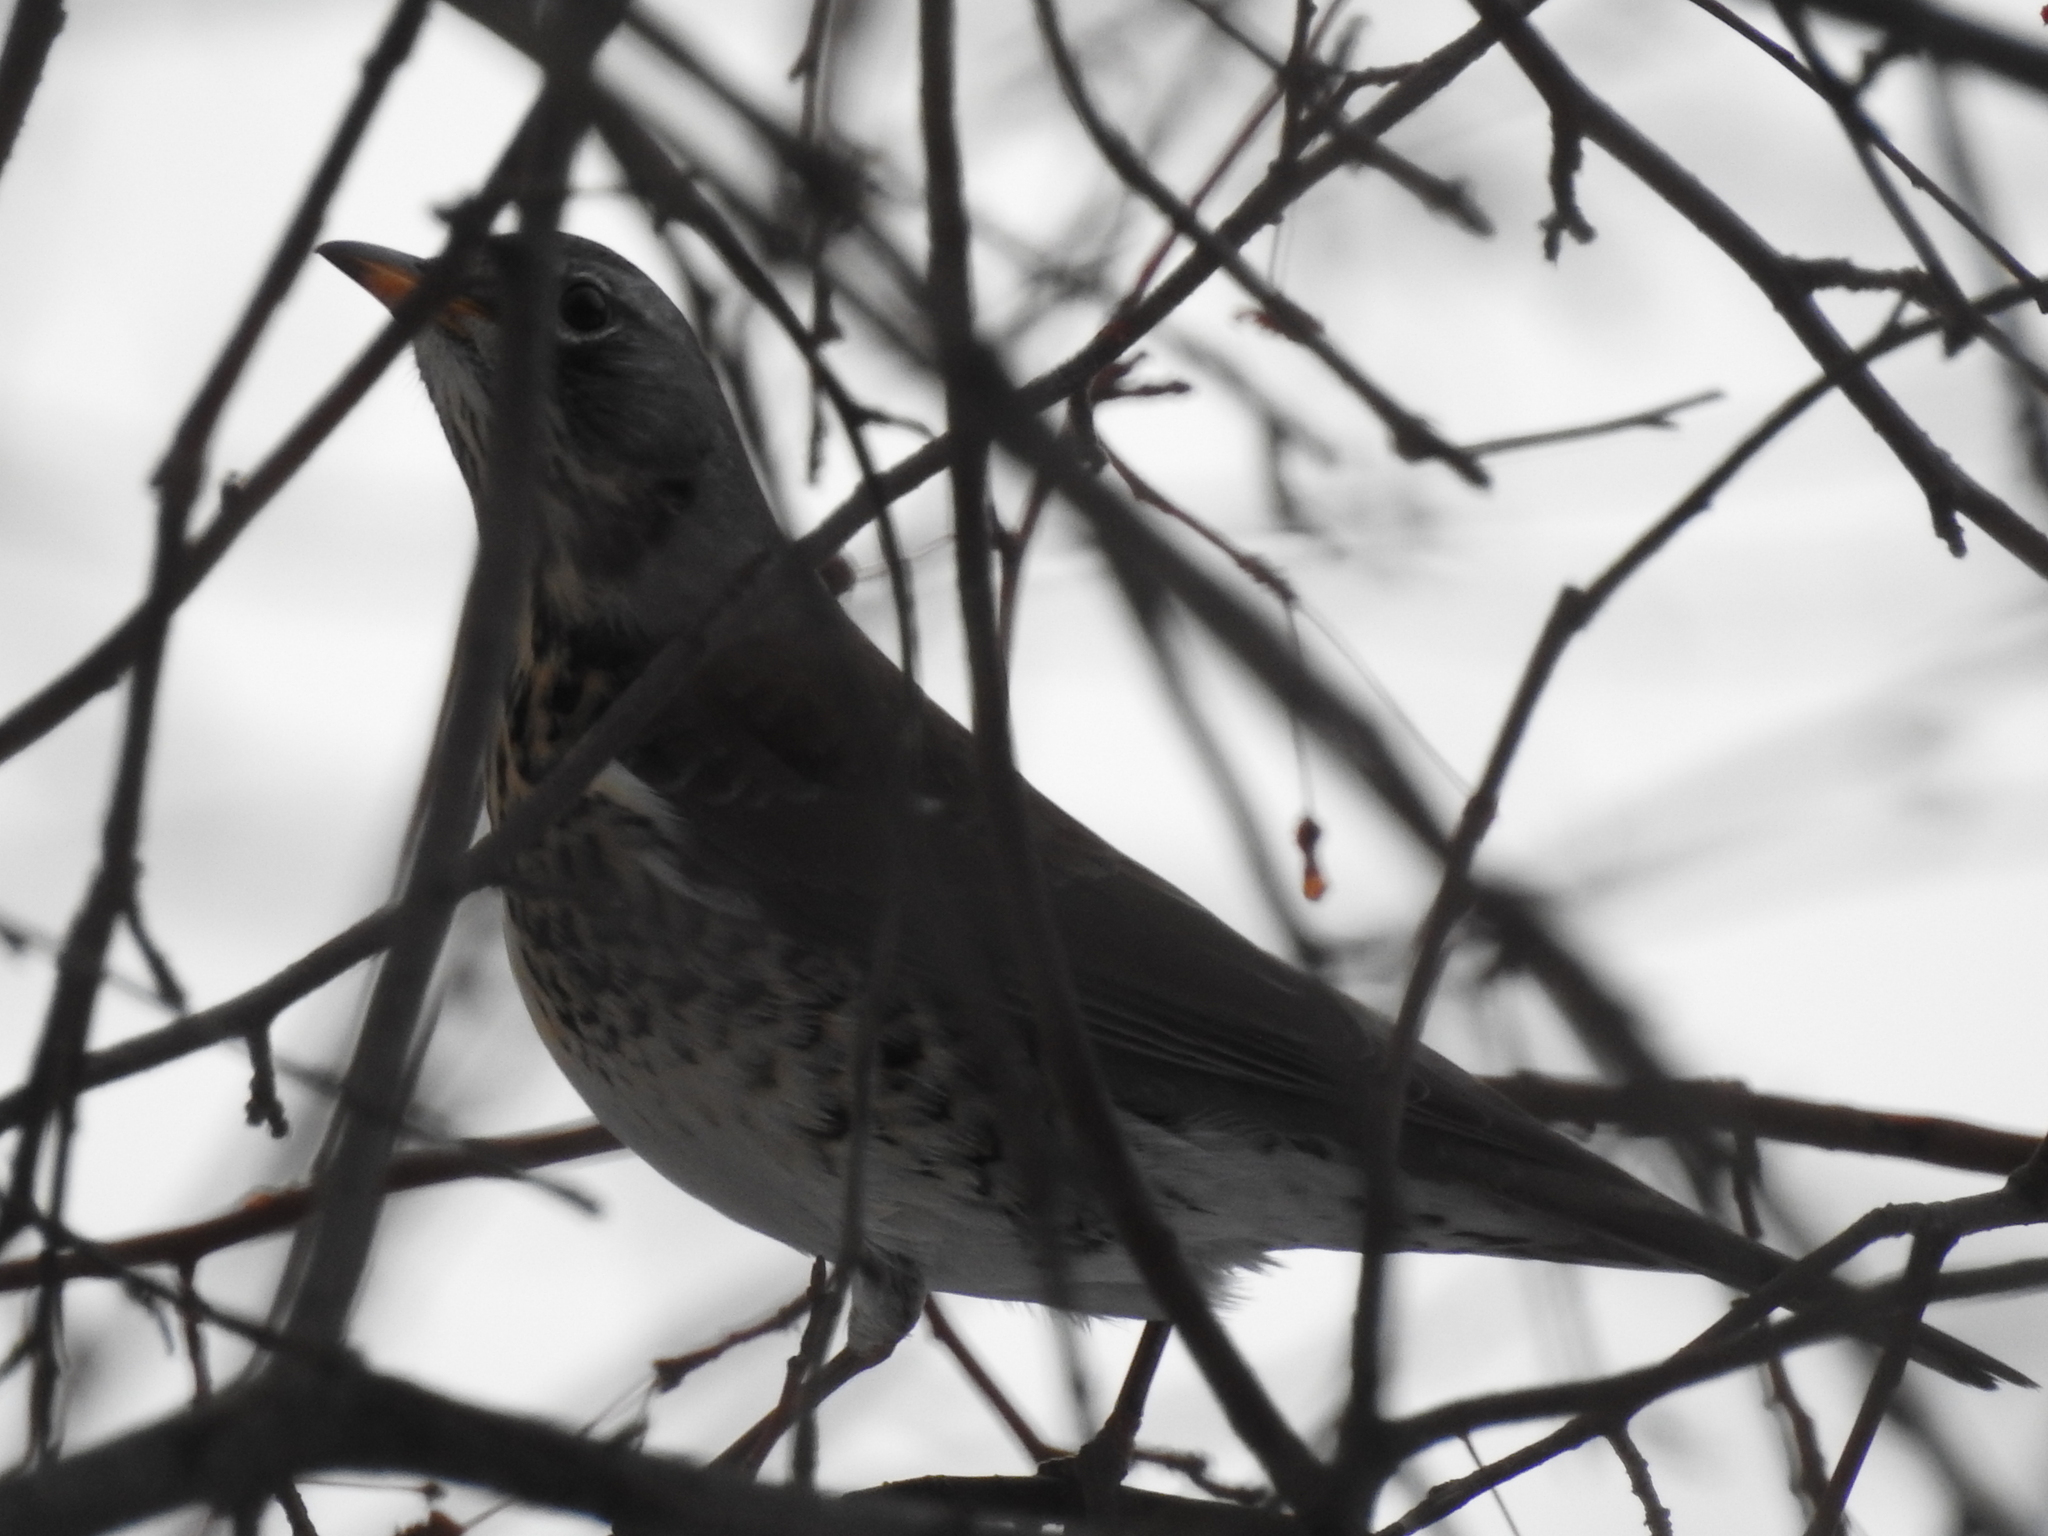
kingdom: Animalia
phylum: Chordata
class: Aves
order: Passeriformes
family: Turdidae
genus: Turdus
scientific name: Turdus pilaris
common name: Fieldfare
